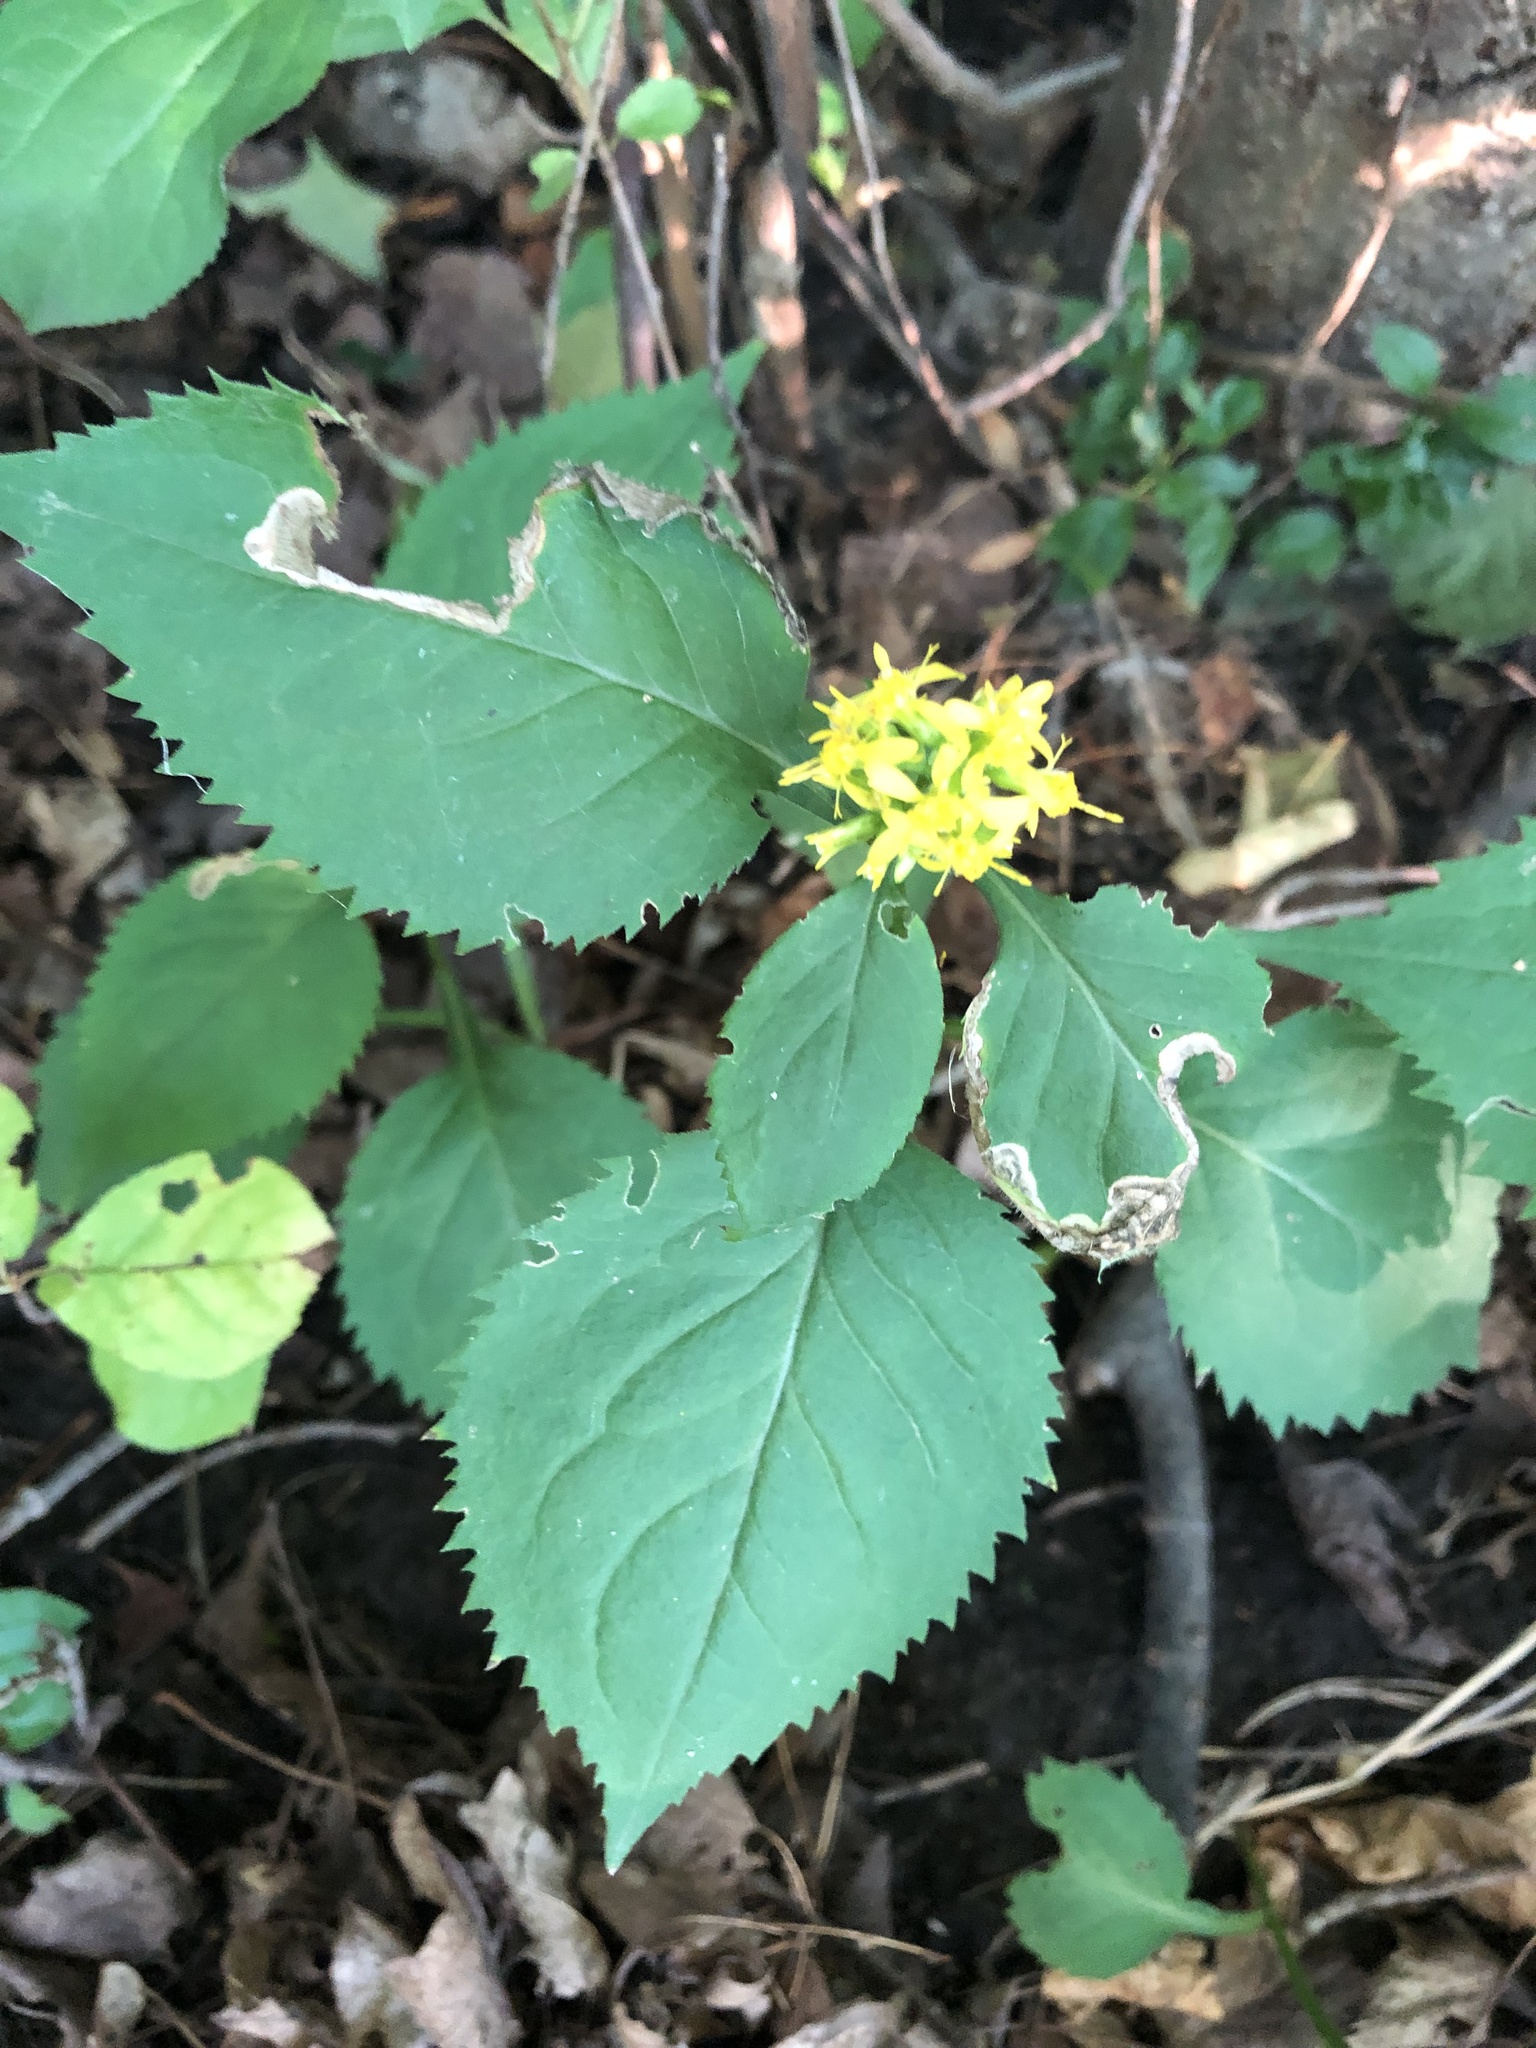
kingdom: Plantae
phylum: Tracheophyta
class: Magnoliopsida
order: Asterales
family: Asteraceae
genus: Solidago
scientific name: Solidago flexicaulis
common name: Zig-zag goldenrod
